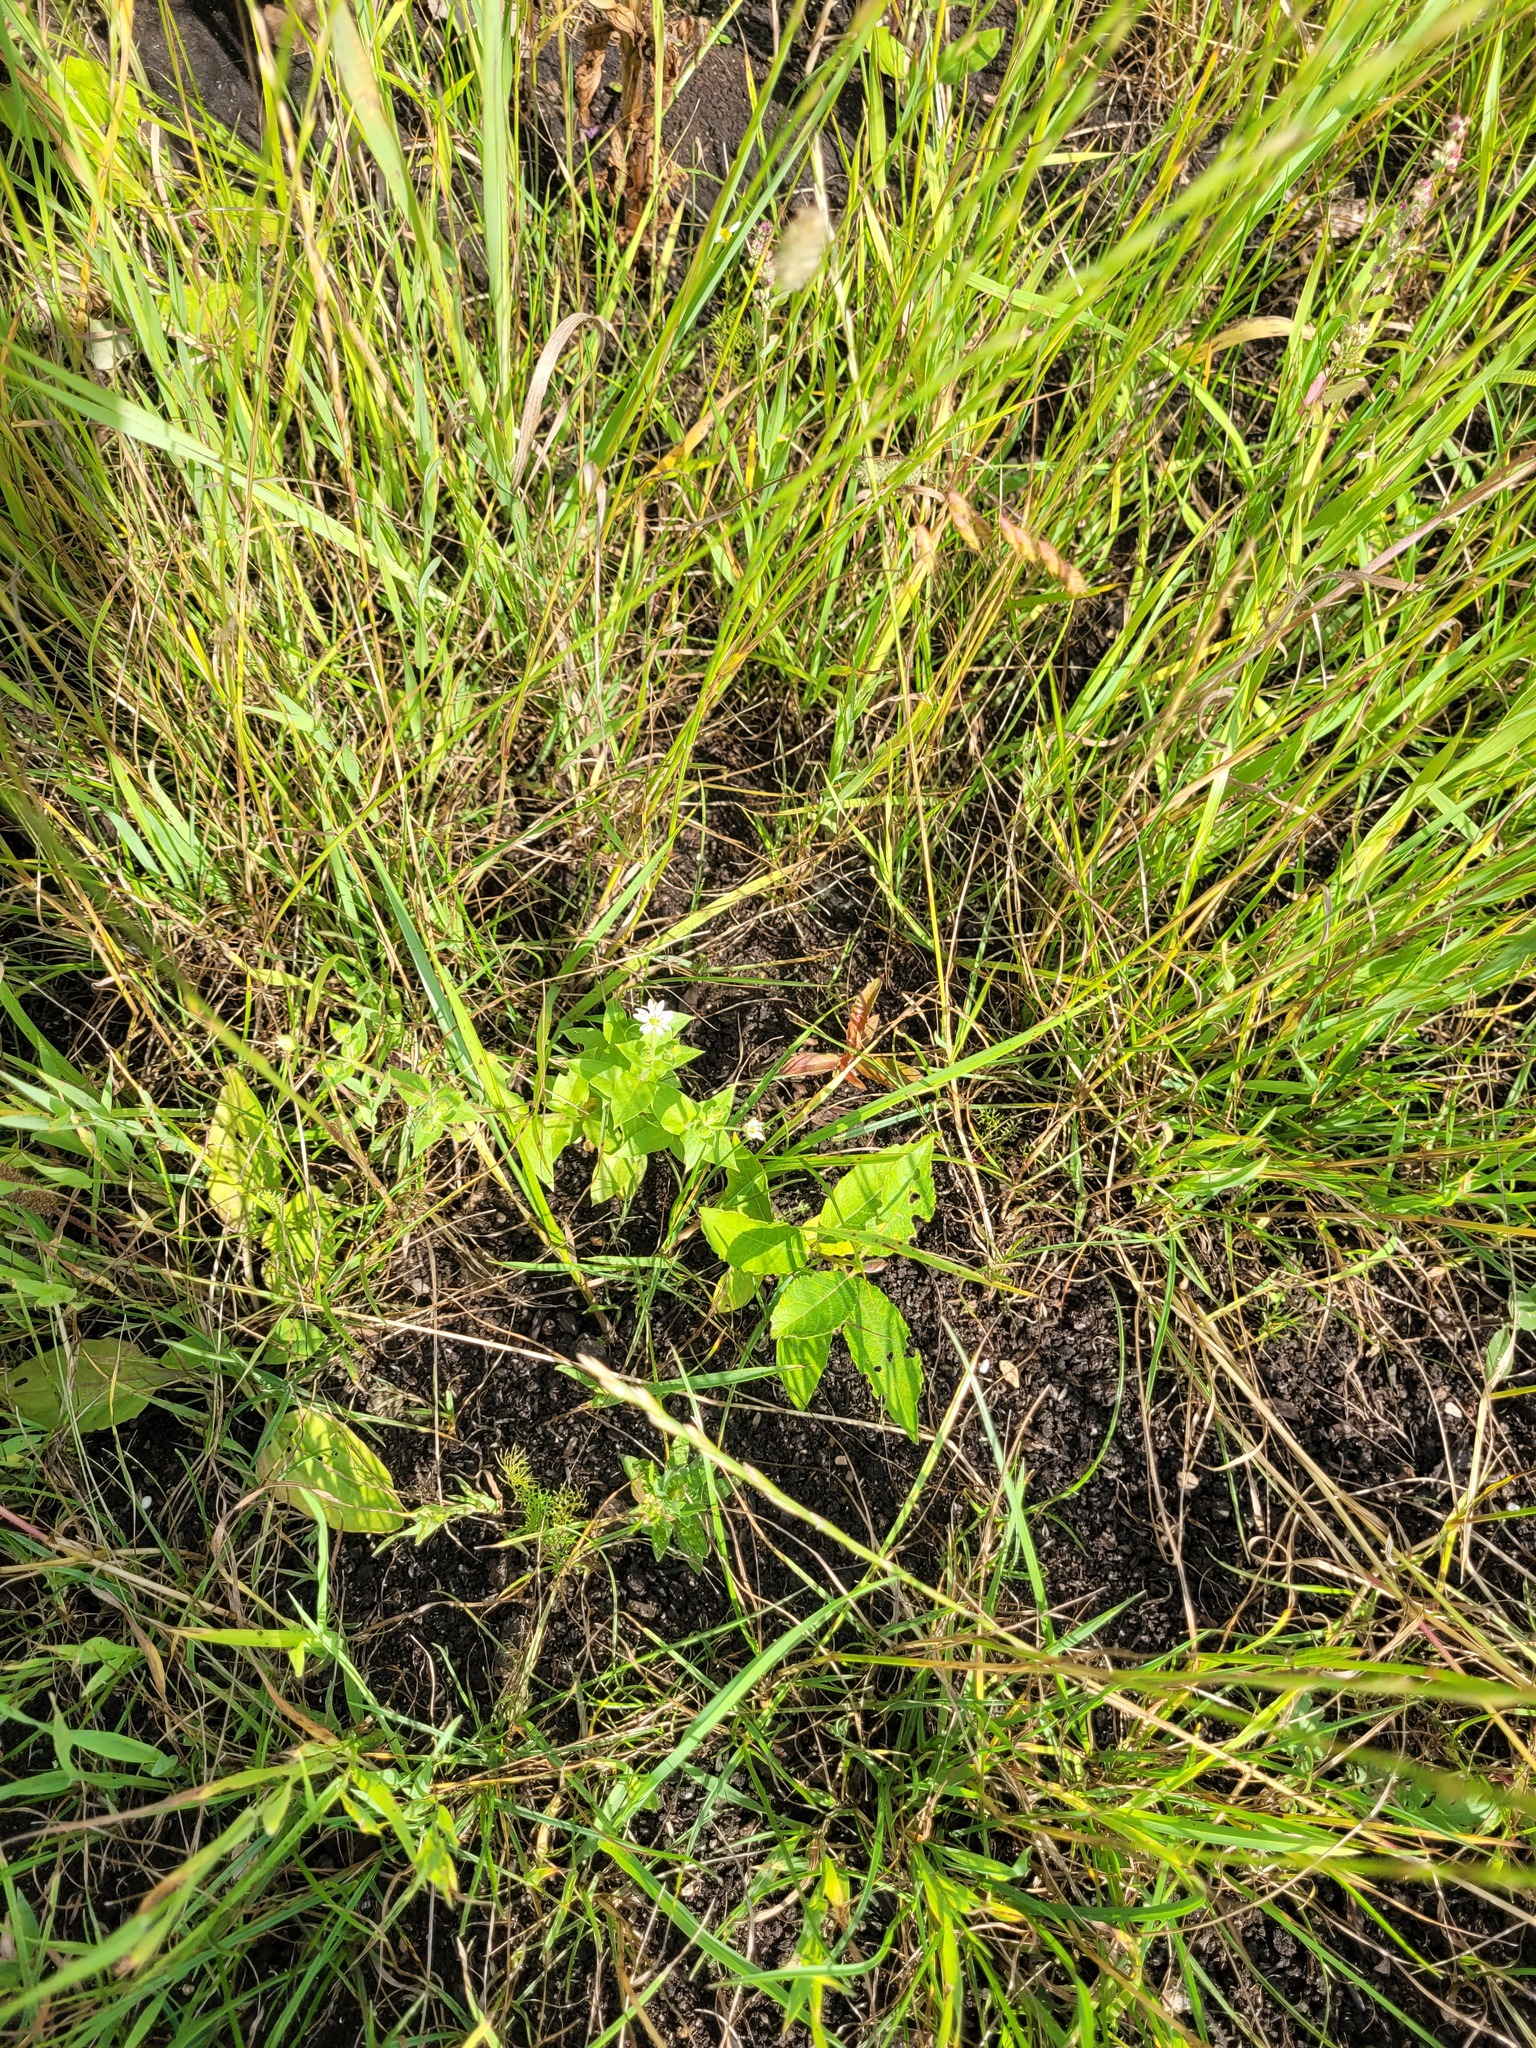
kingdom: Plantae
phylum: Tracheophyta
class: Magnoliopsida
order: Caryophyllales
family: Caryophyllaceae
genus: Stellaria
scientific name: Stellaria aquatica
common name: Water chickweed
